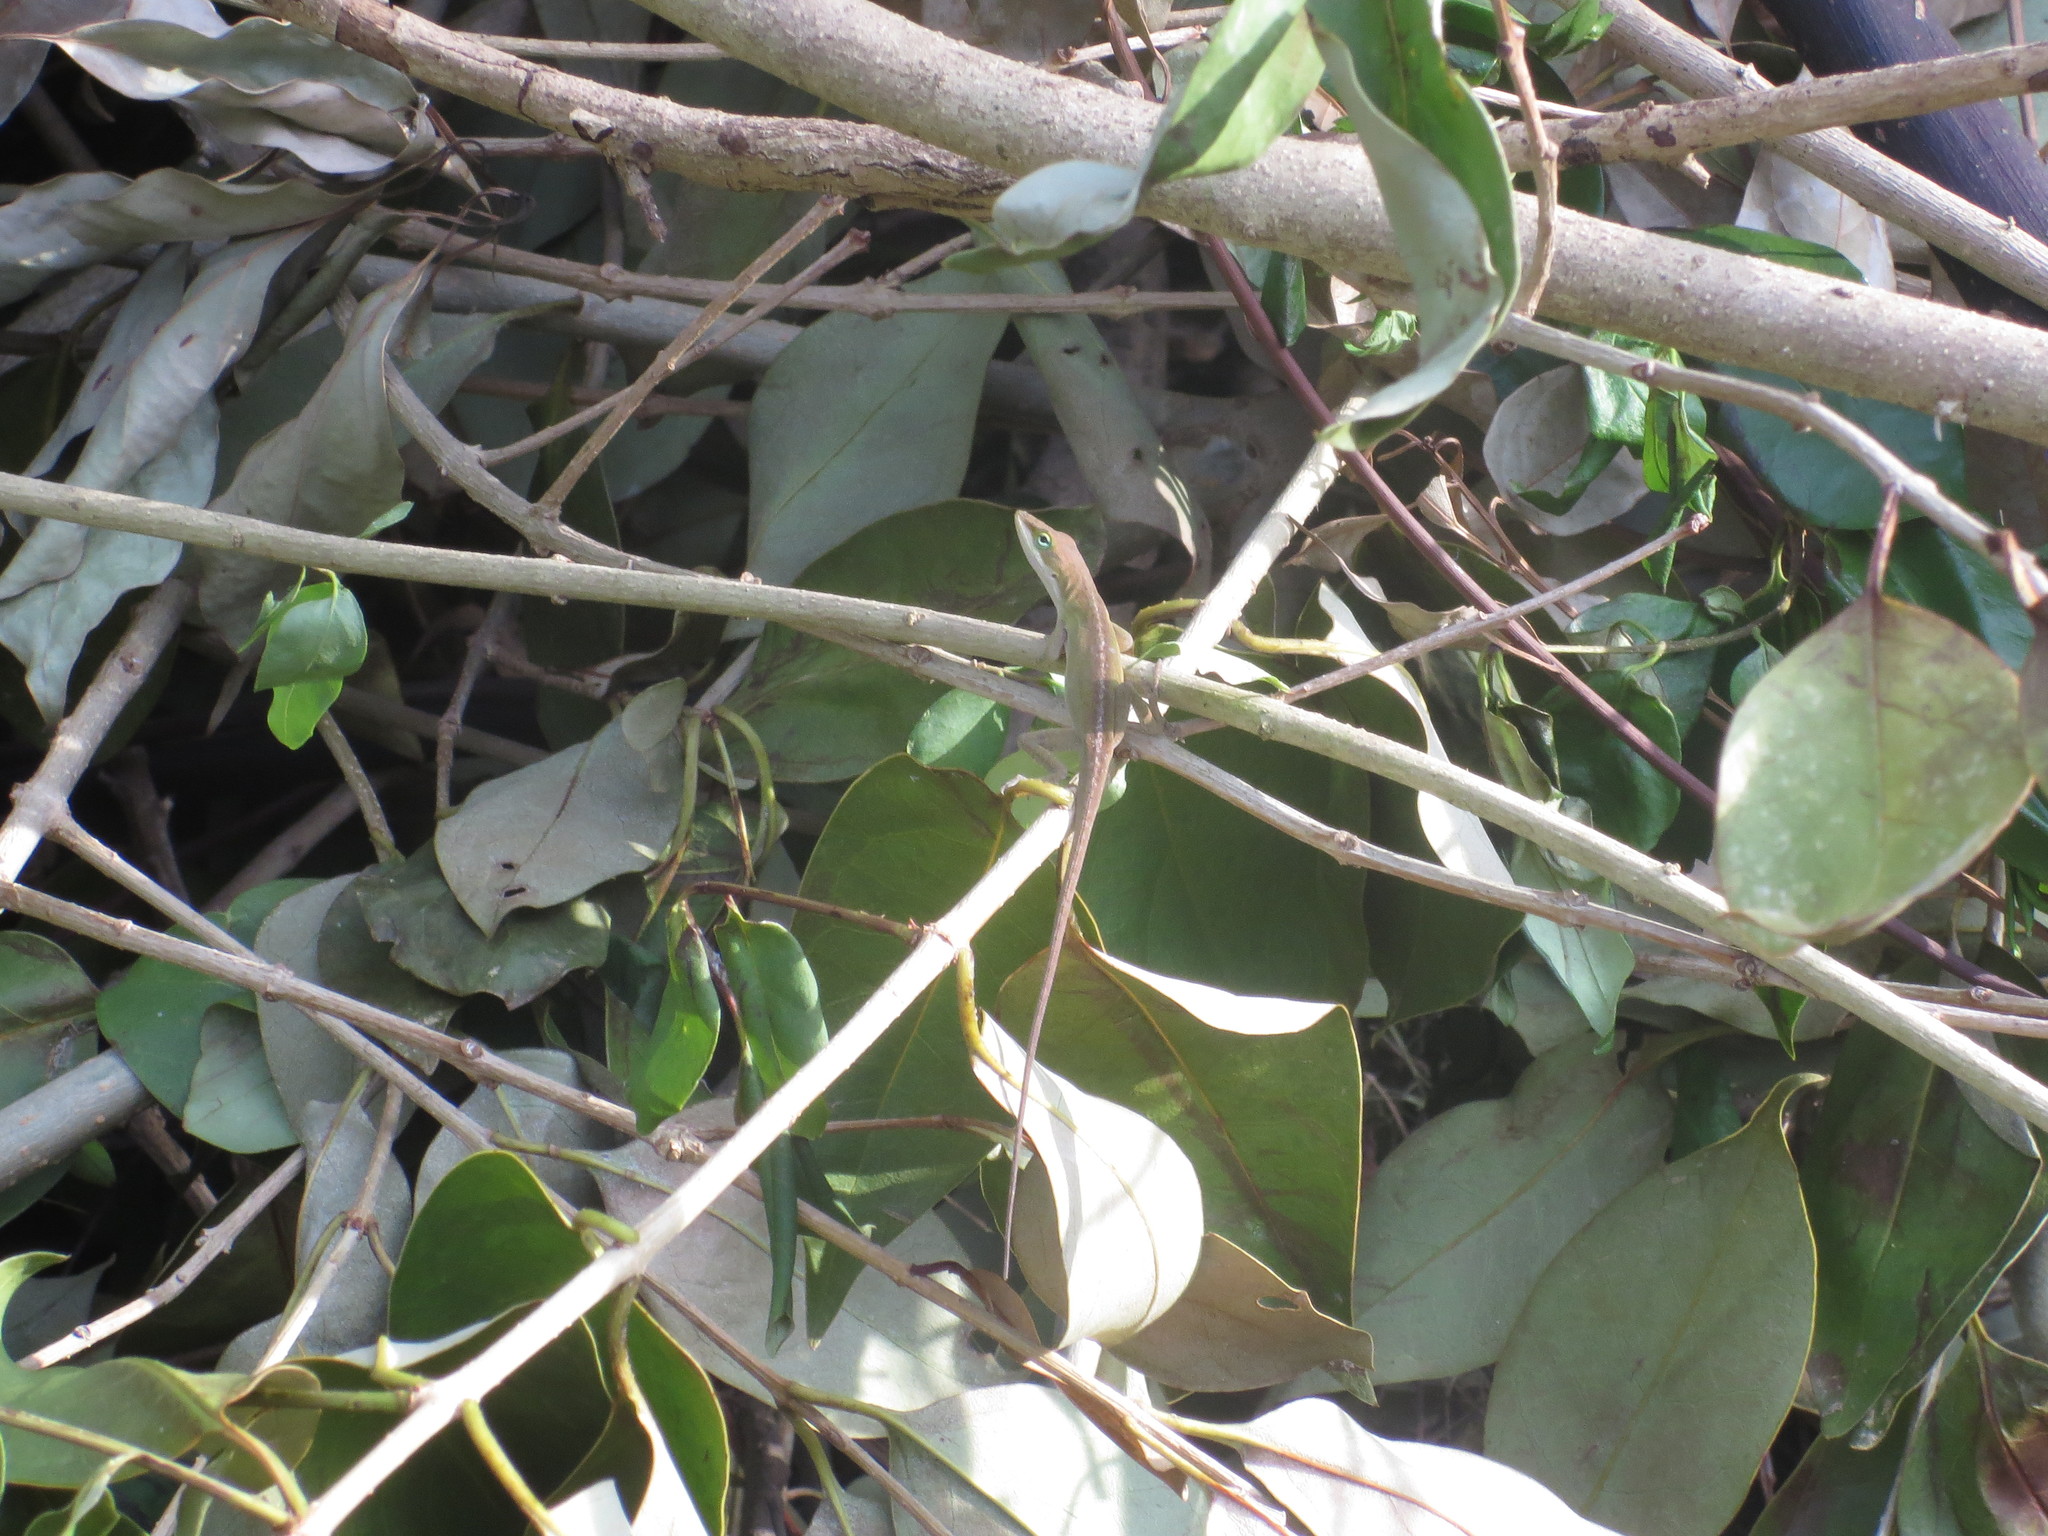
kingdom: Animalia
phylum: Chordata
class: Squamata
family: Dactyloidae
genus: Anolis
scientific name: Anolis carolinensis
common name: Green anole
